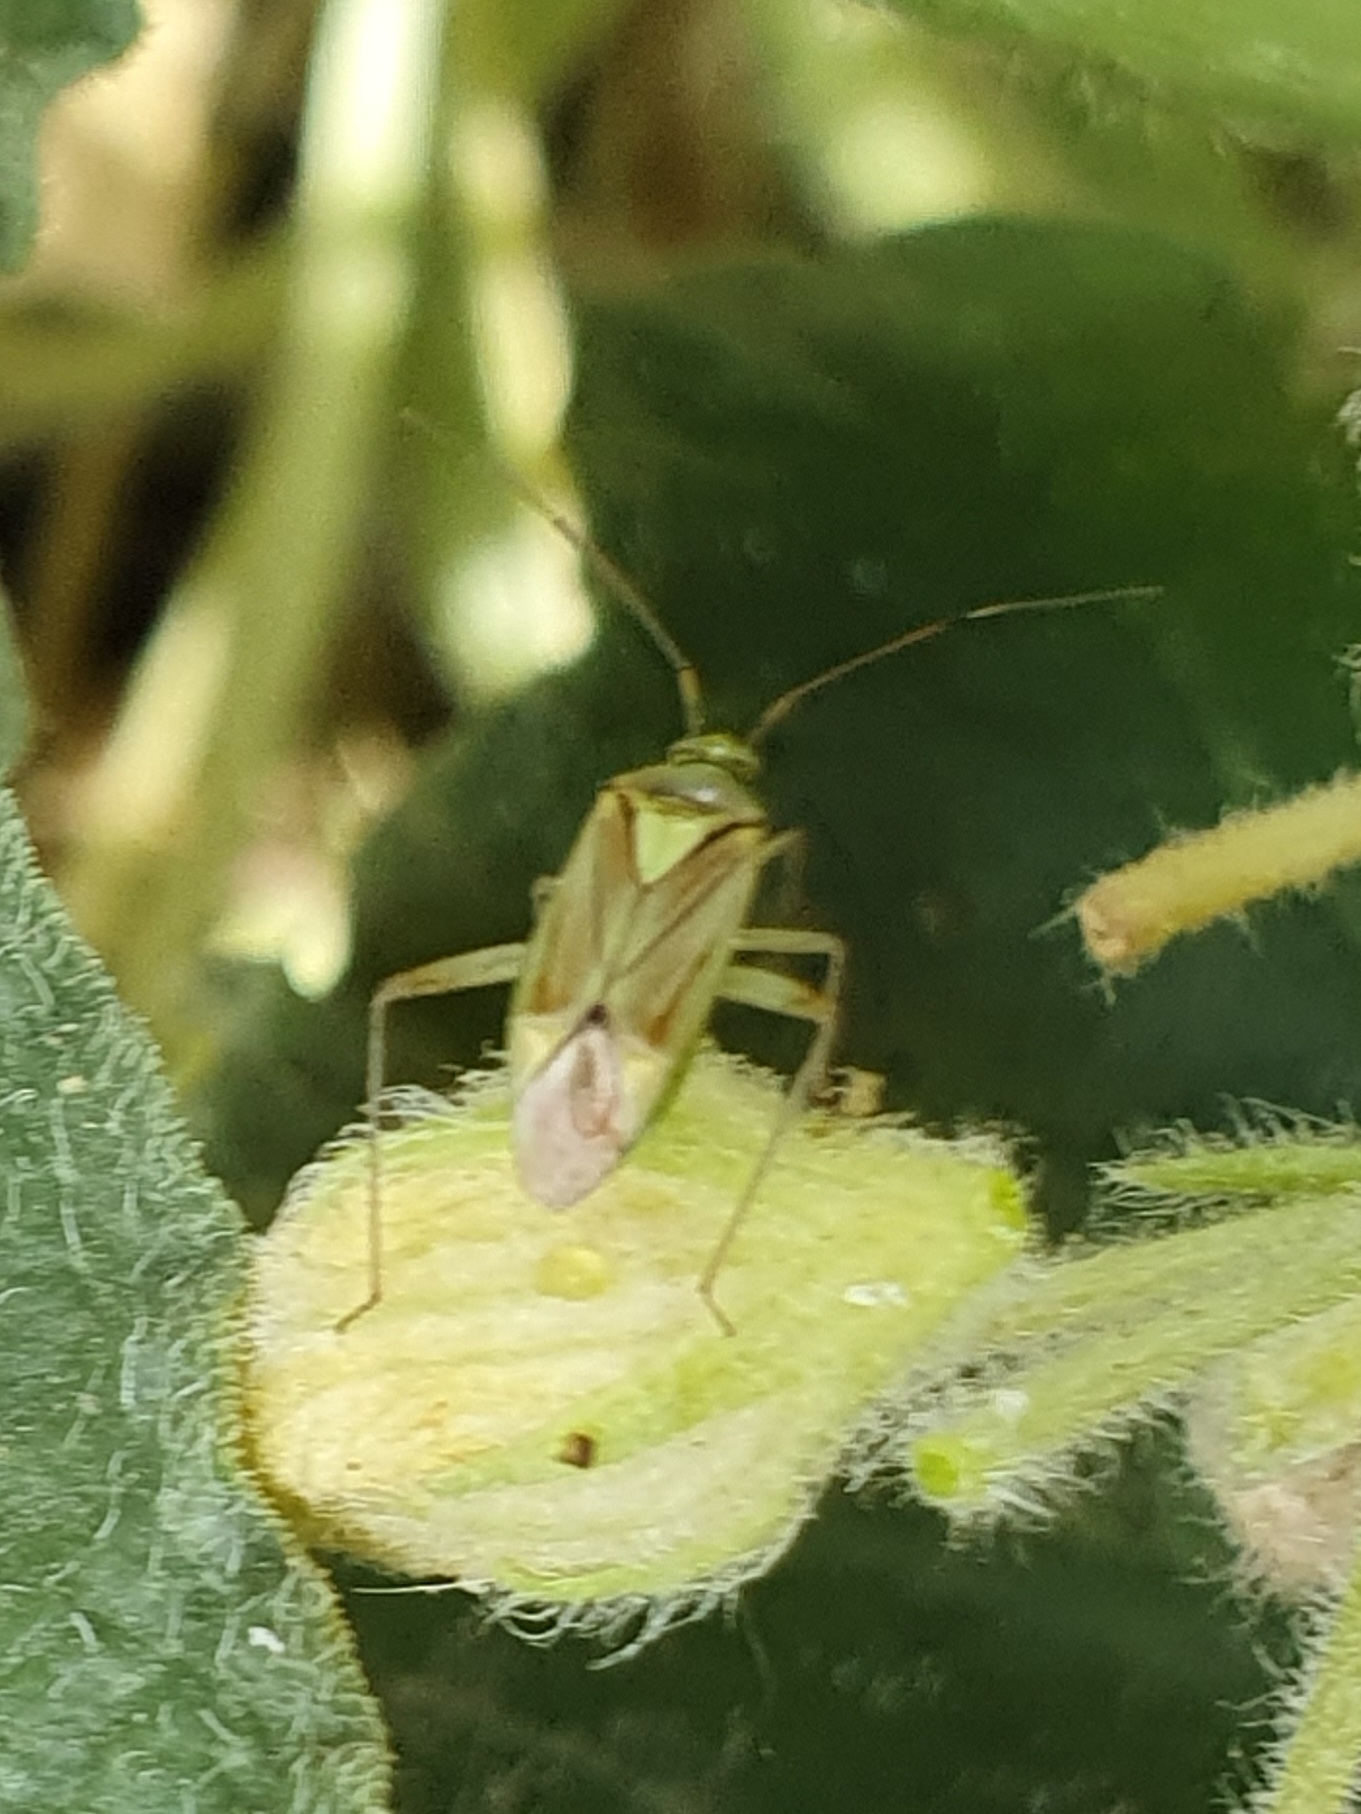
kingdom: Animalia
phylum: Arthropoda
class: Insecta
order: Hemiptera
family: Miridae
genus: Closterotomus
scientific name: Closterotomus tunetanus
